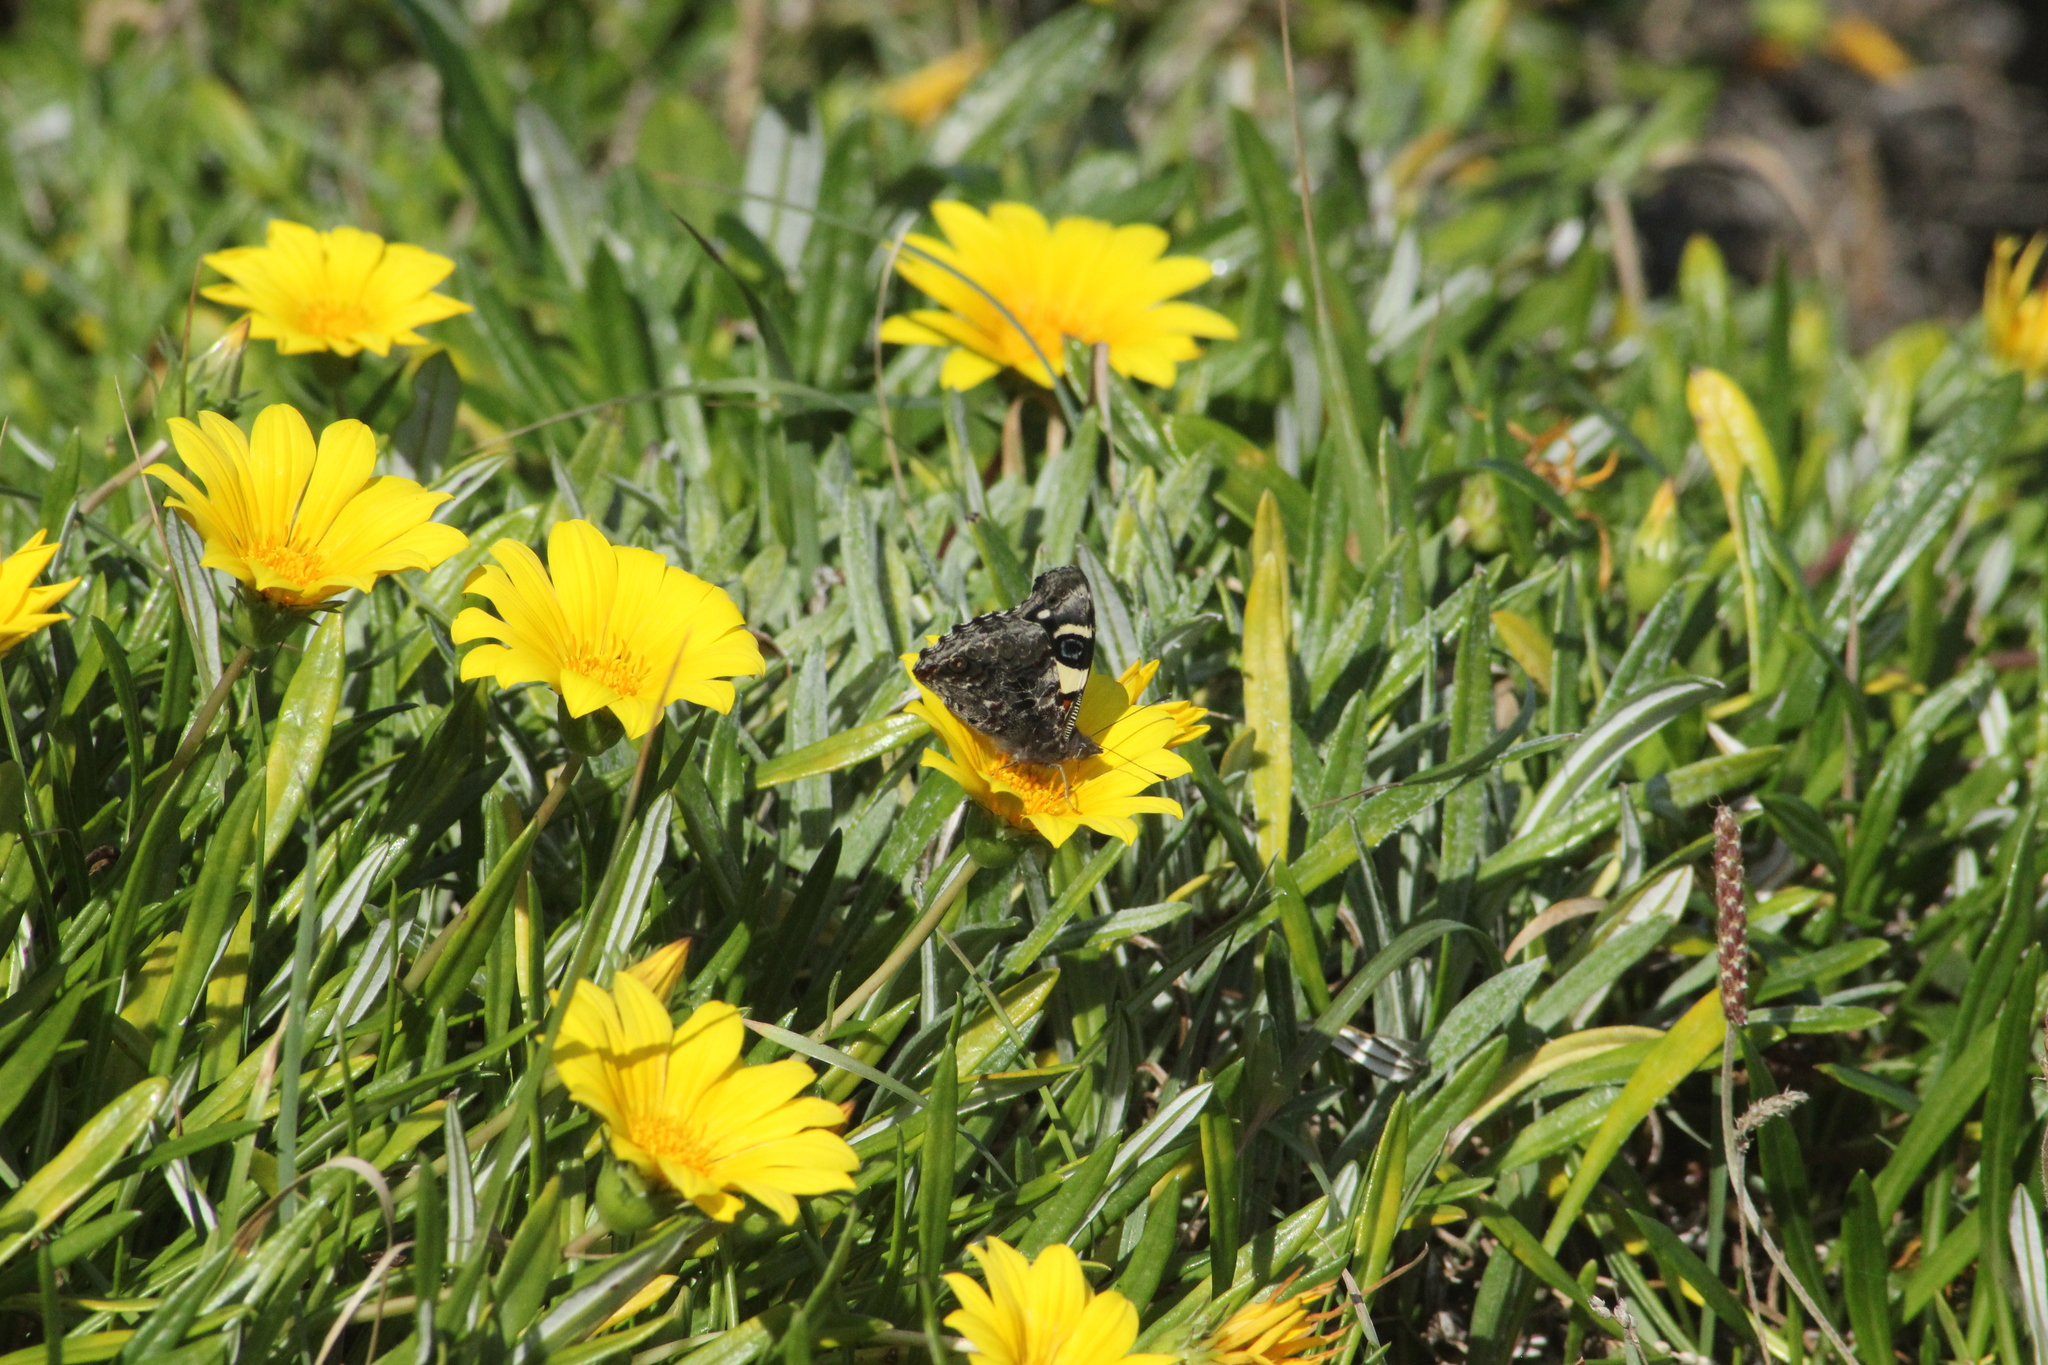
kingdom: Animalia
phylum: Arthropoda
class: Insecta
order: Lepidoptera
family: Nymphalidae
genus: Vanessa
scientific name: Vanessa itea
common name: Yellow admiral
